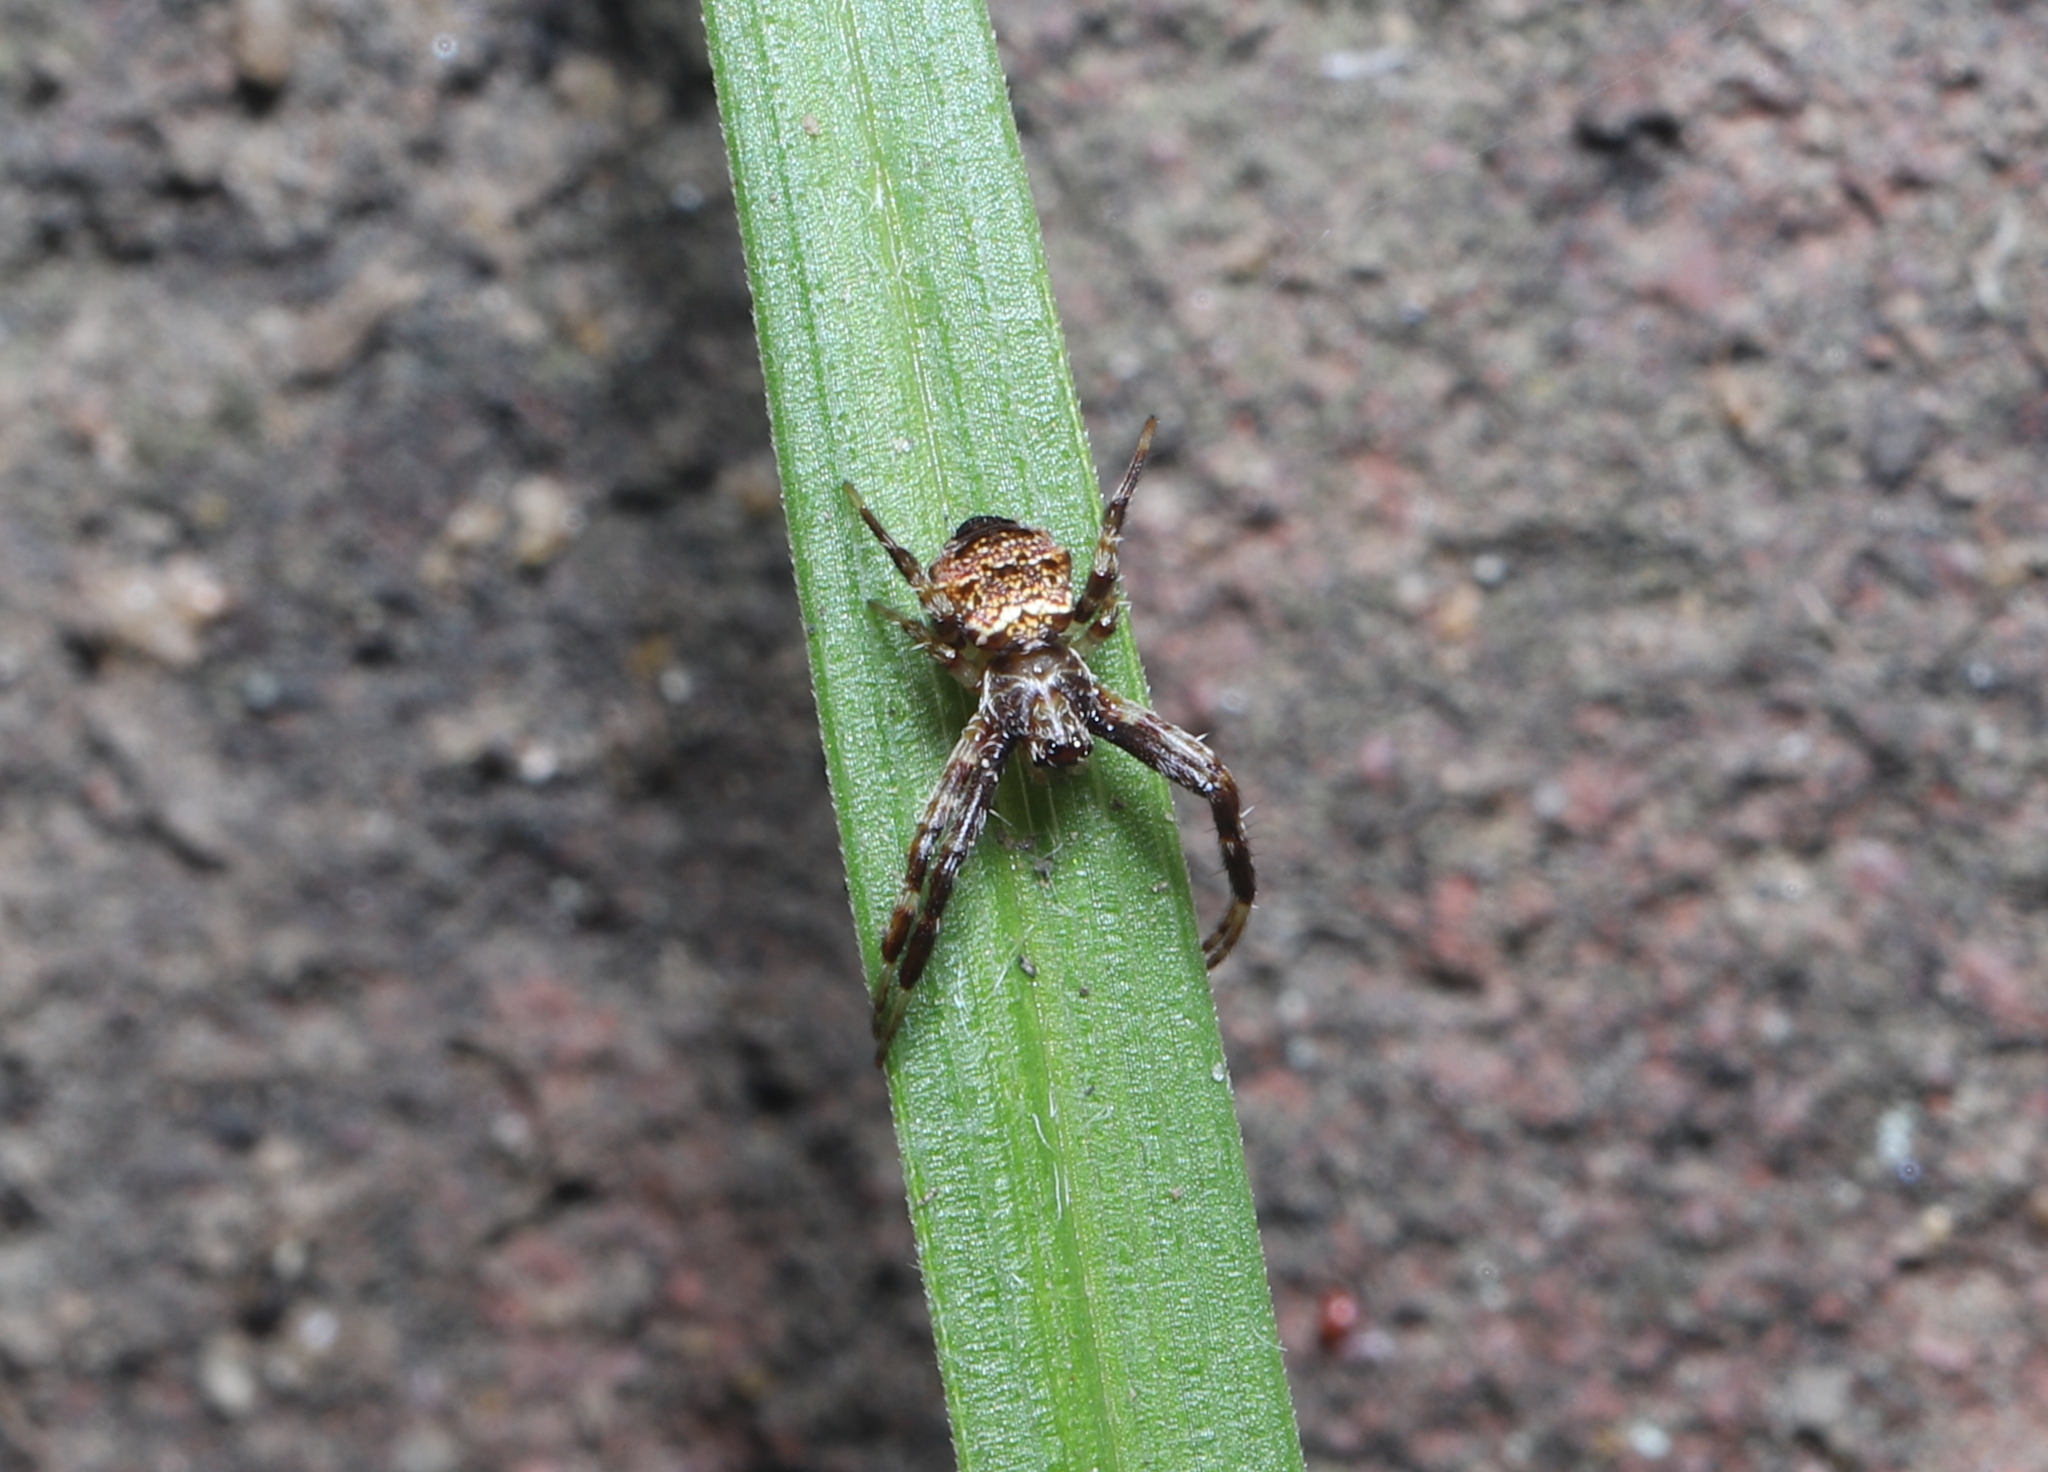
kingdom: Animalia
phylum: Arthropoda
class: Arachnida
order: Araneae
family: Araneidae
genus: Gea
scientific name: Gea heptagon
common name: Orb weavers
